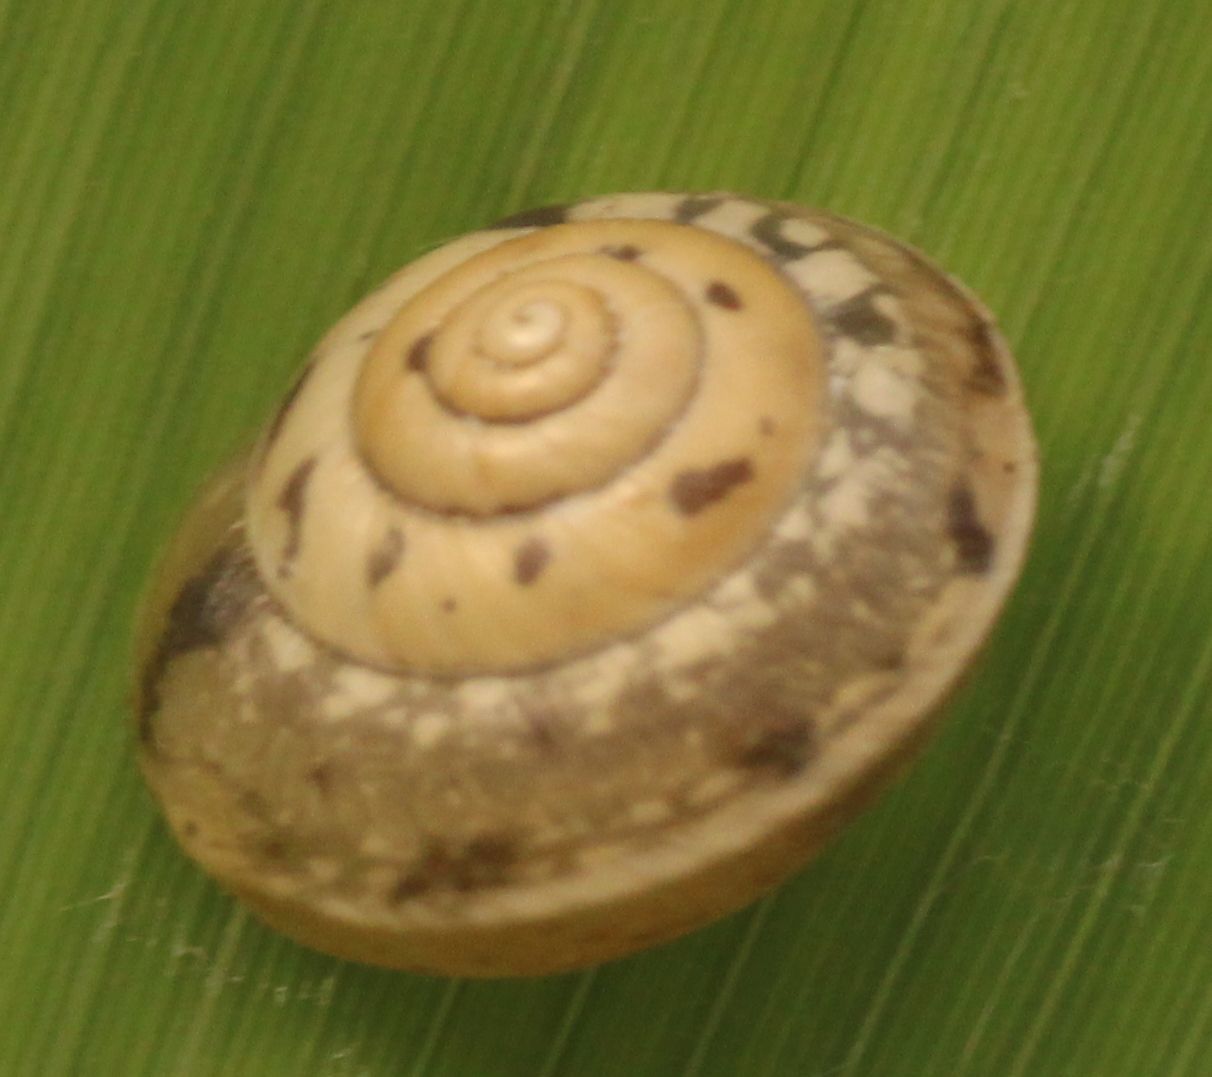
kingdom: Animalia
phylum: Mollusca
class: Gastropoda
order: Stylommatophora
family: Hygromiidae
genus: Hygromia
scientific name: Hygromia cinctella
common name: Girdled snail
